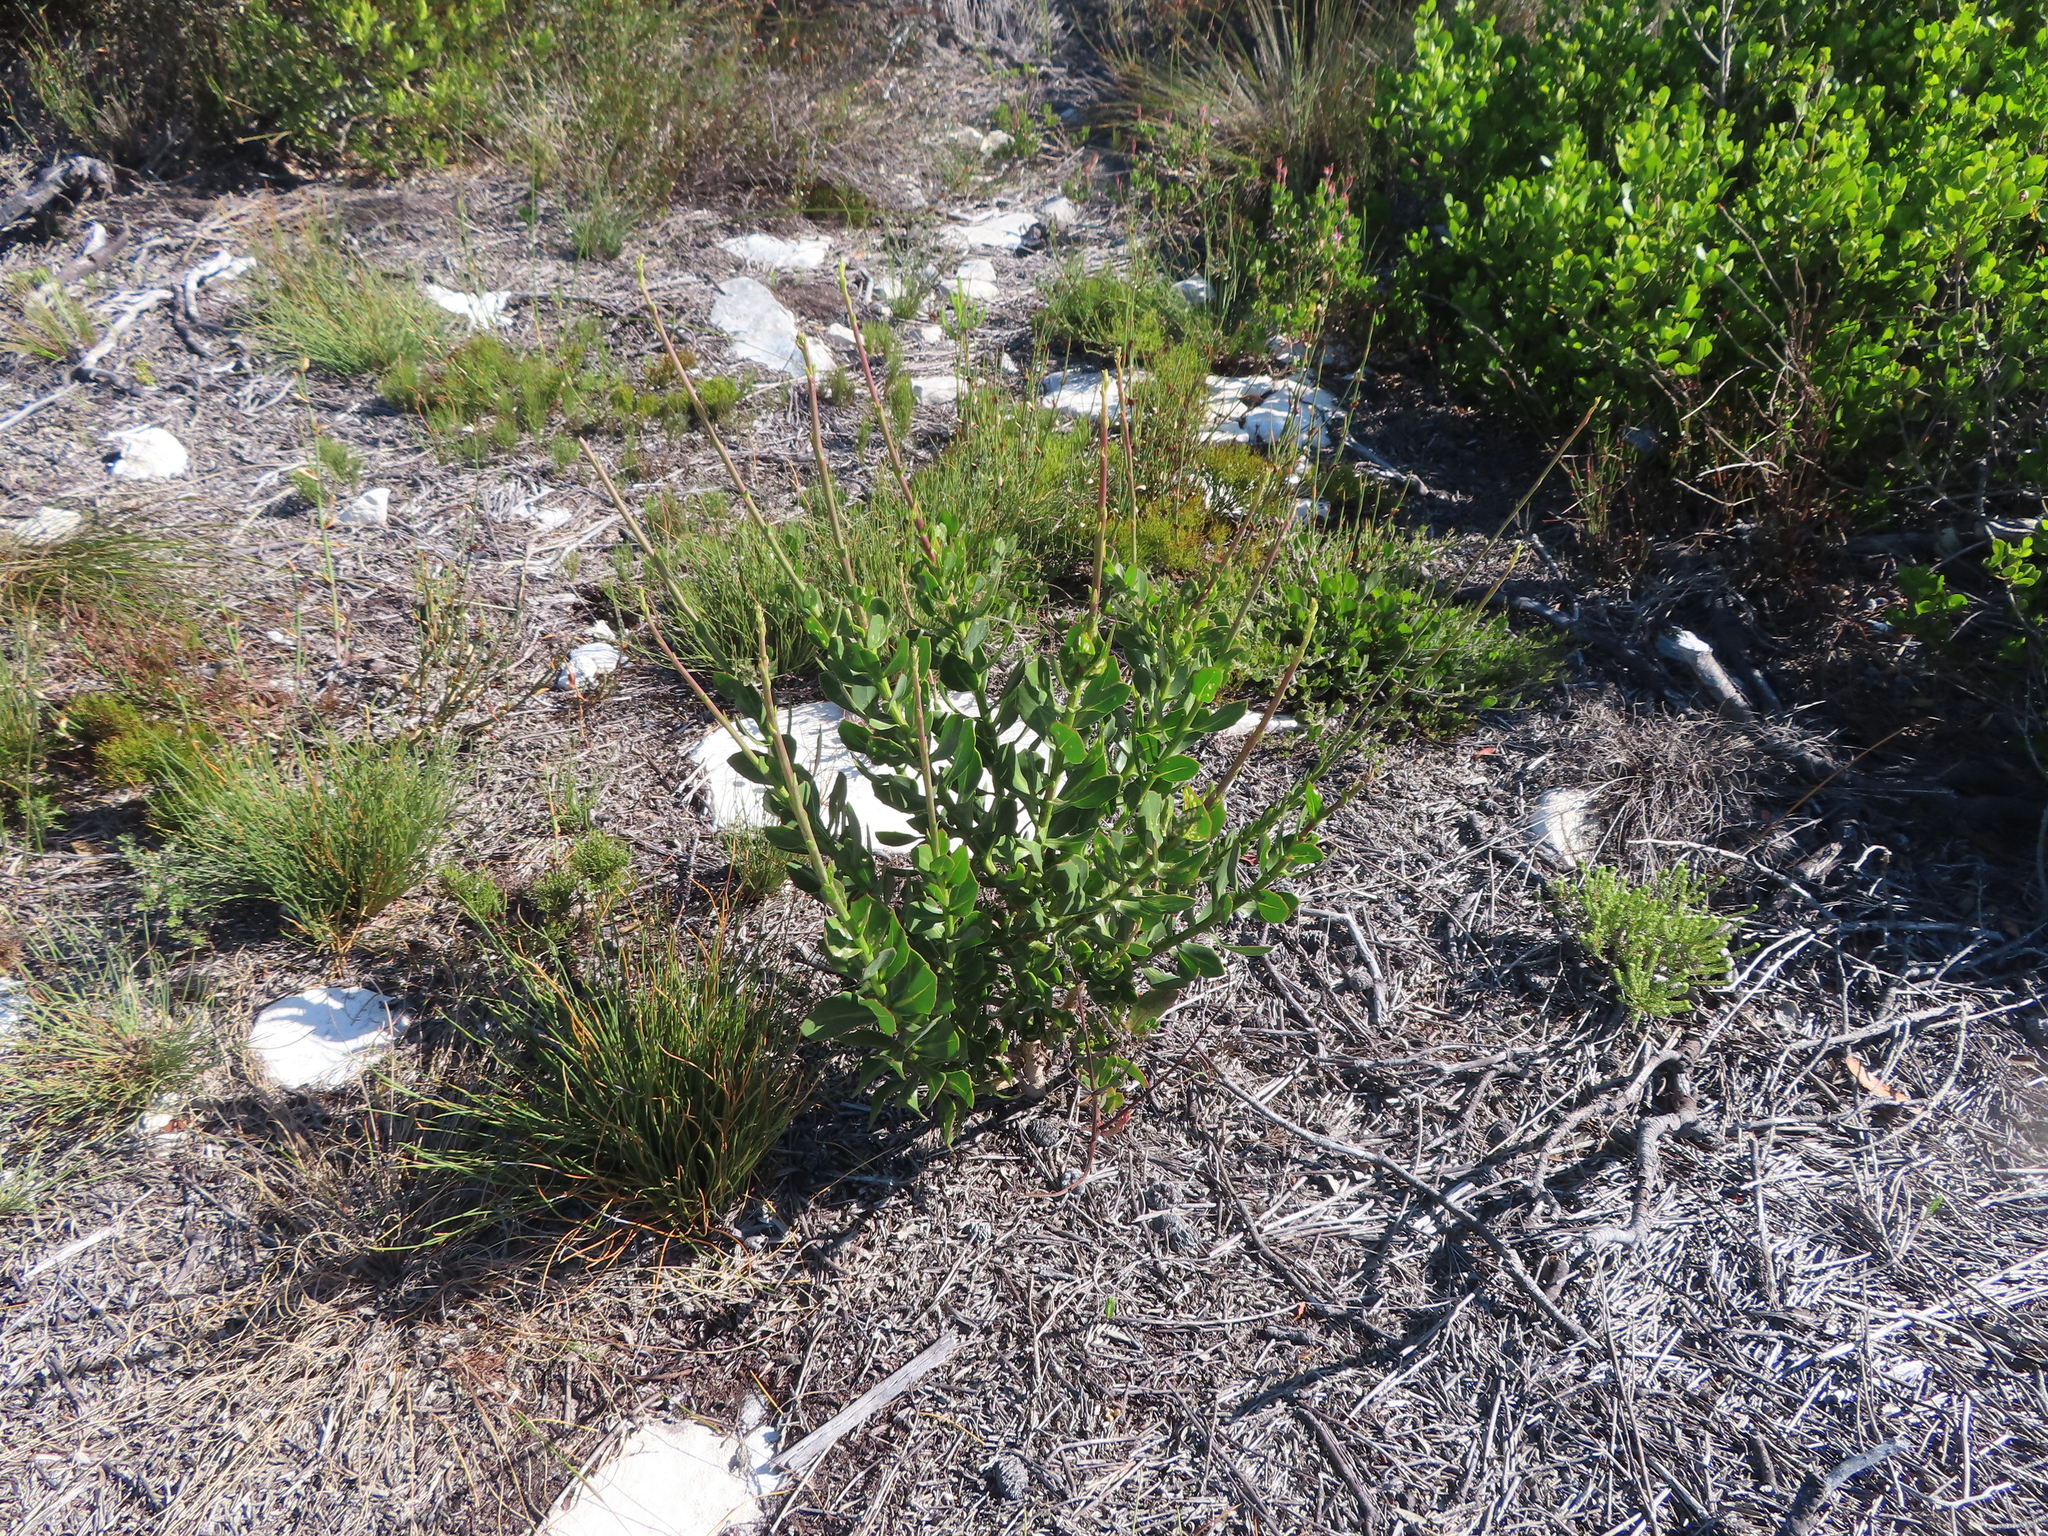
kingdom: Plantae
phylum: Tracheophyta
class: Magnoliopsida
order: Asterales
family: Asteraceae
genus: Othonna
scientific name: Othonna quinquedentata
